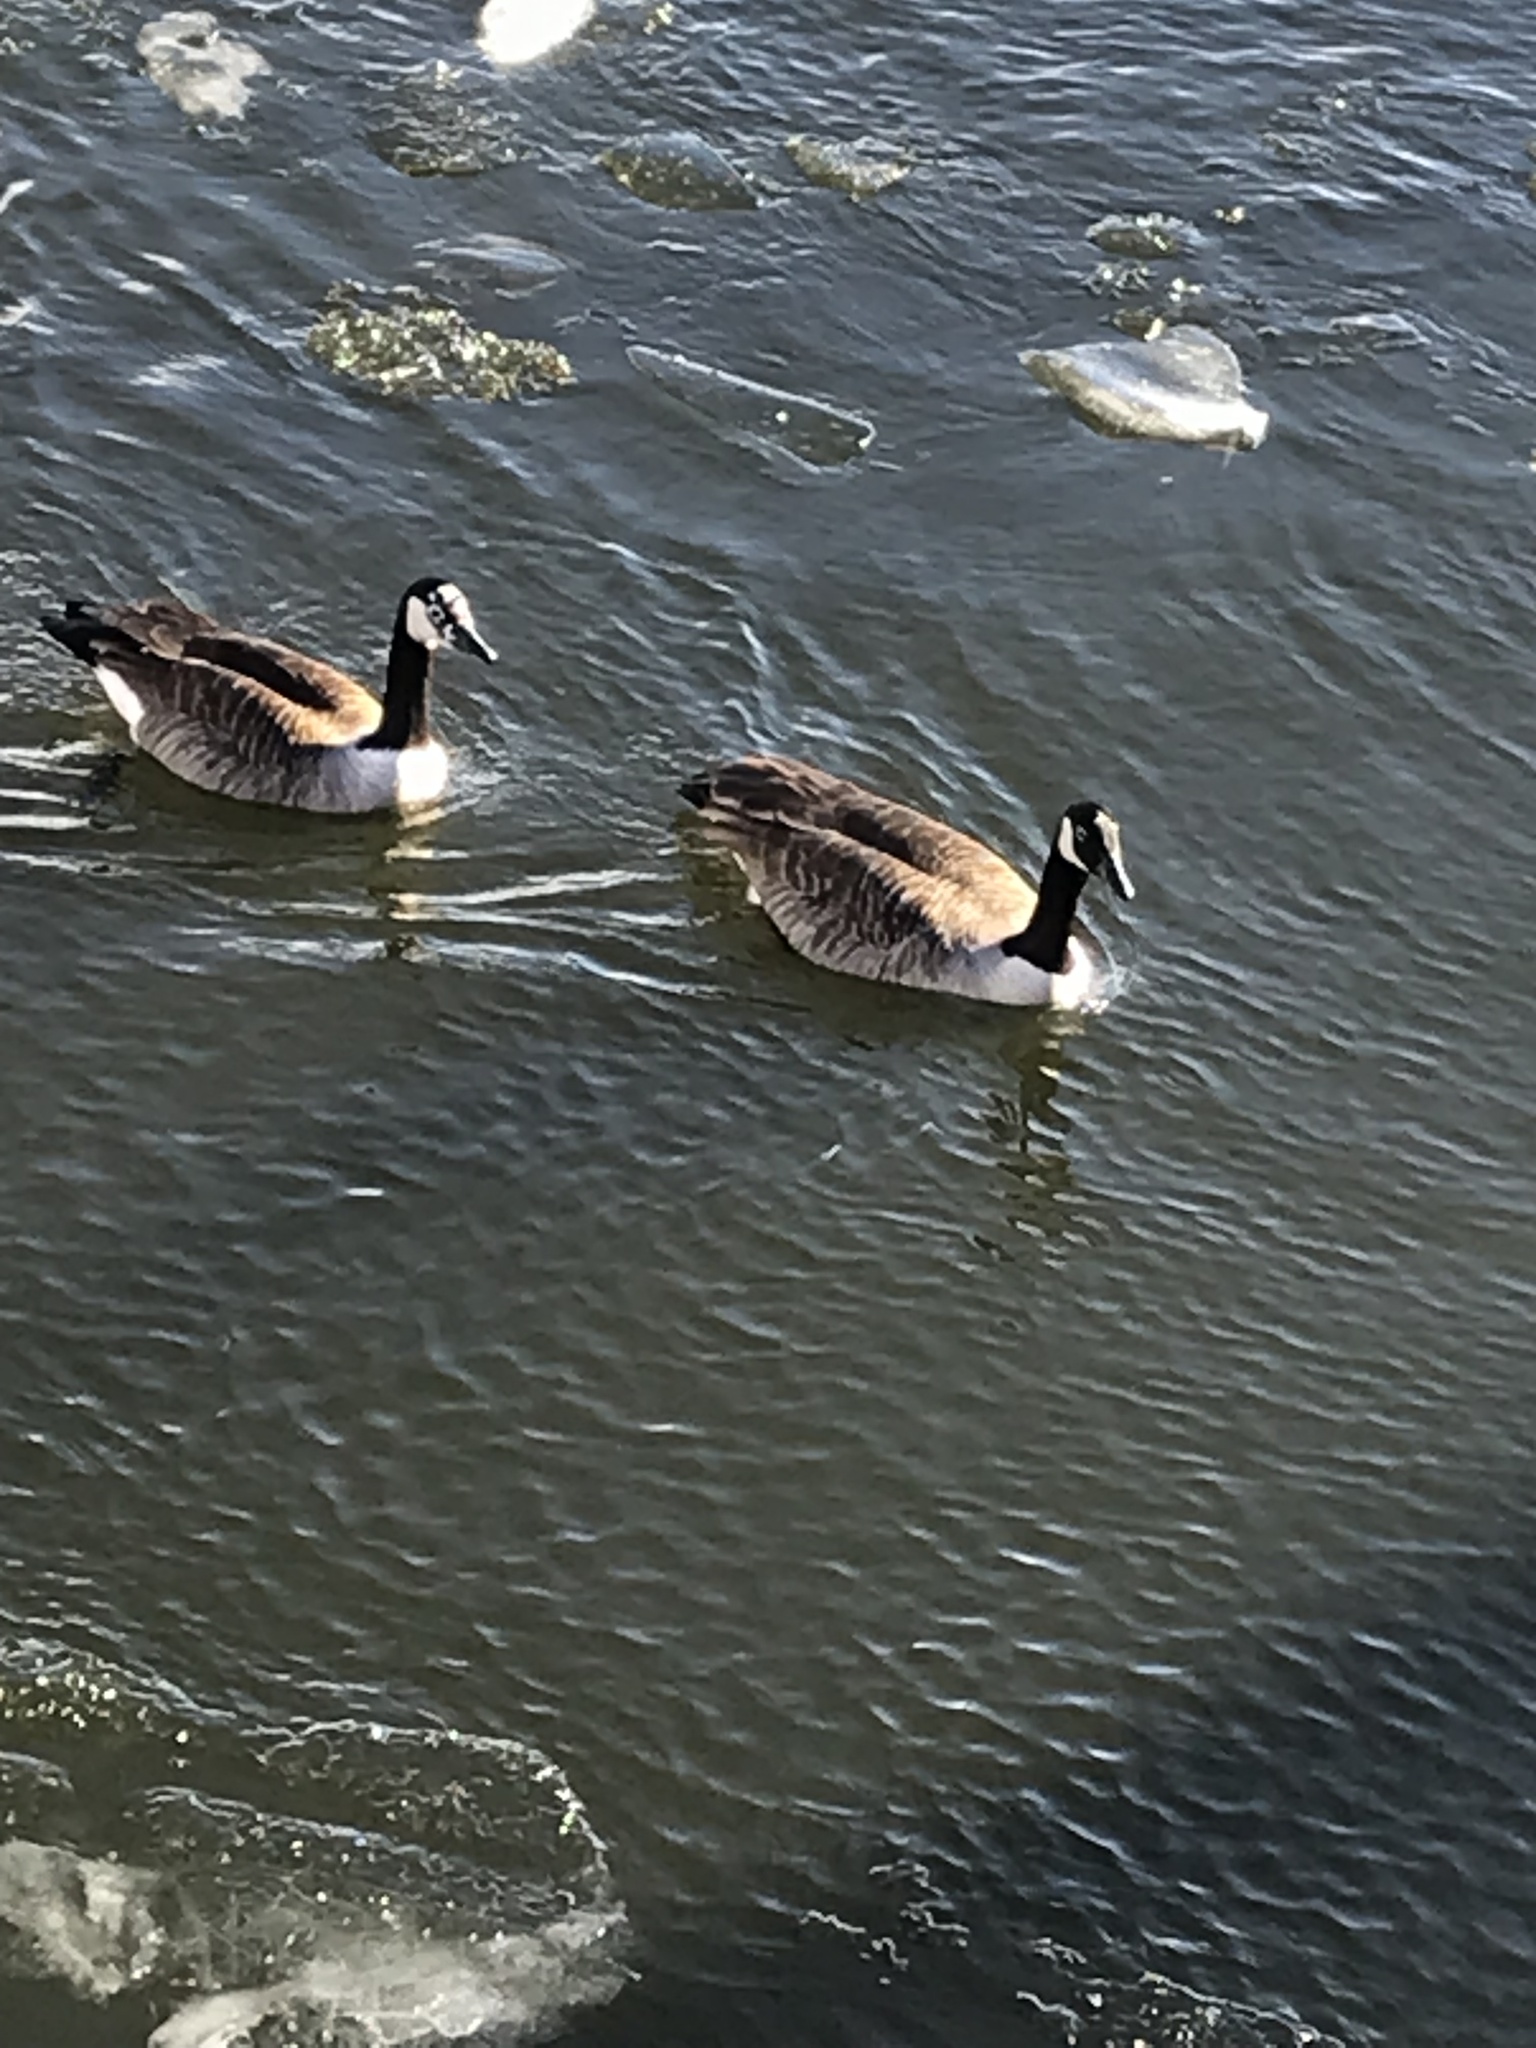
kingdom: Animalia
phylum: Chordata
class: Aves
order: Anseriformes
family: Anatidae
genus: Branta
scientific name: Branta canadensis
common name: Canada goose
